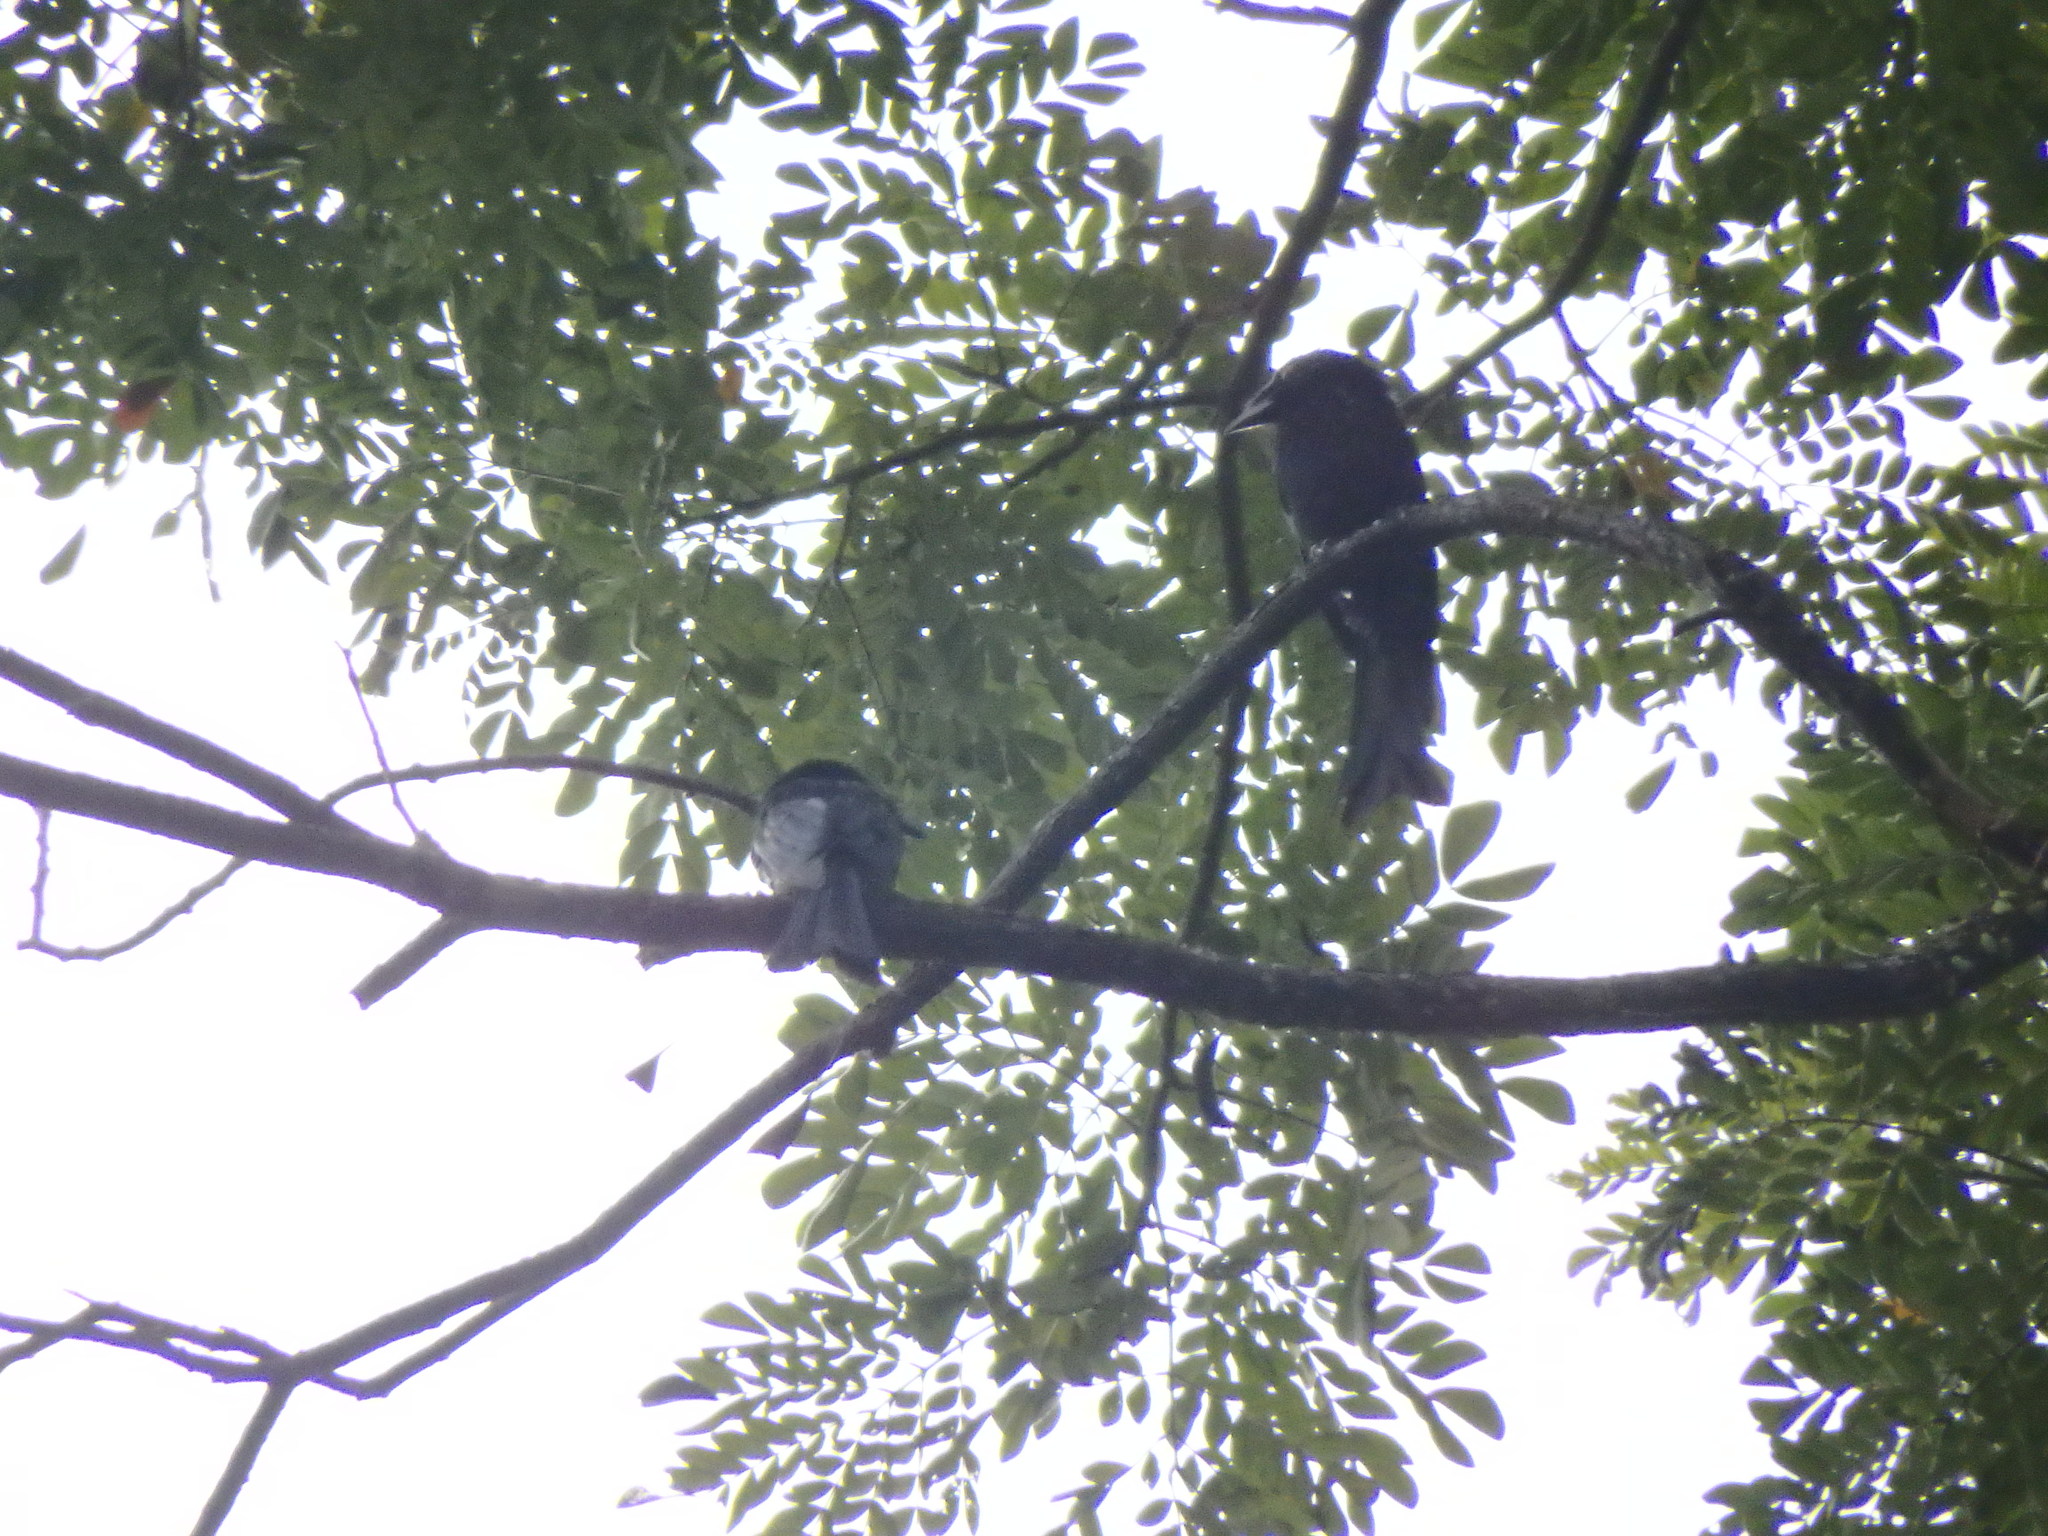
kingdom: Animalia
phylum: Chordata
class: Aves
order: Passeriformes
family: Dicruridae
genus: Dicrurus
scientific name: Dicrurus paradiseus
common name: Greater racket-tailed drongo
